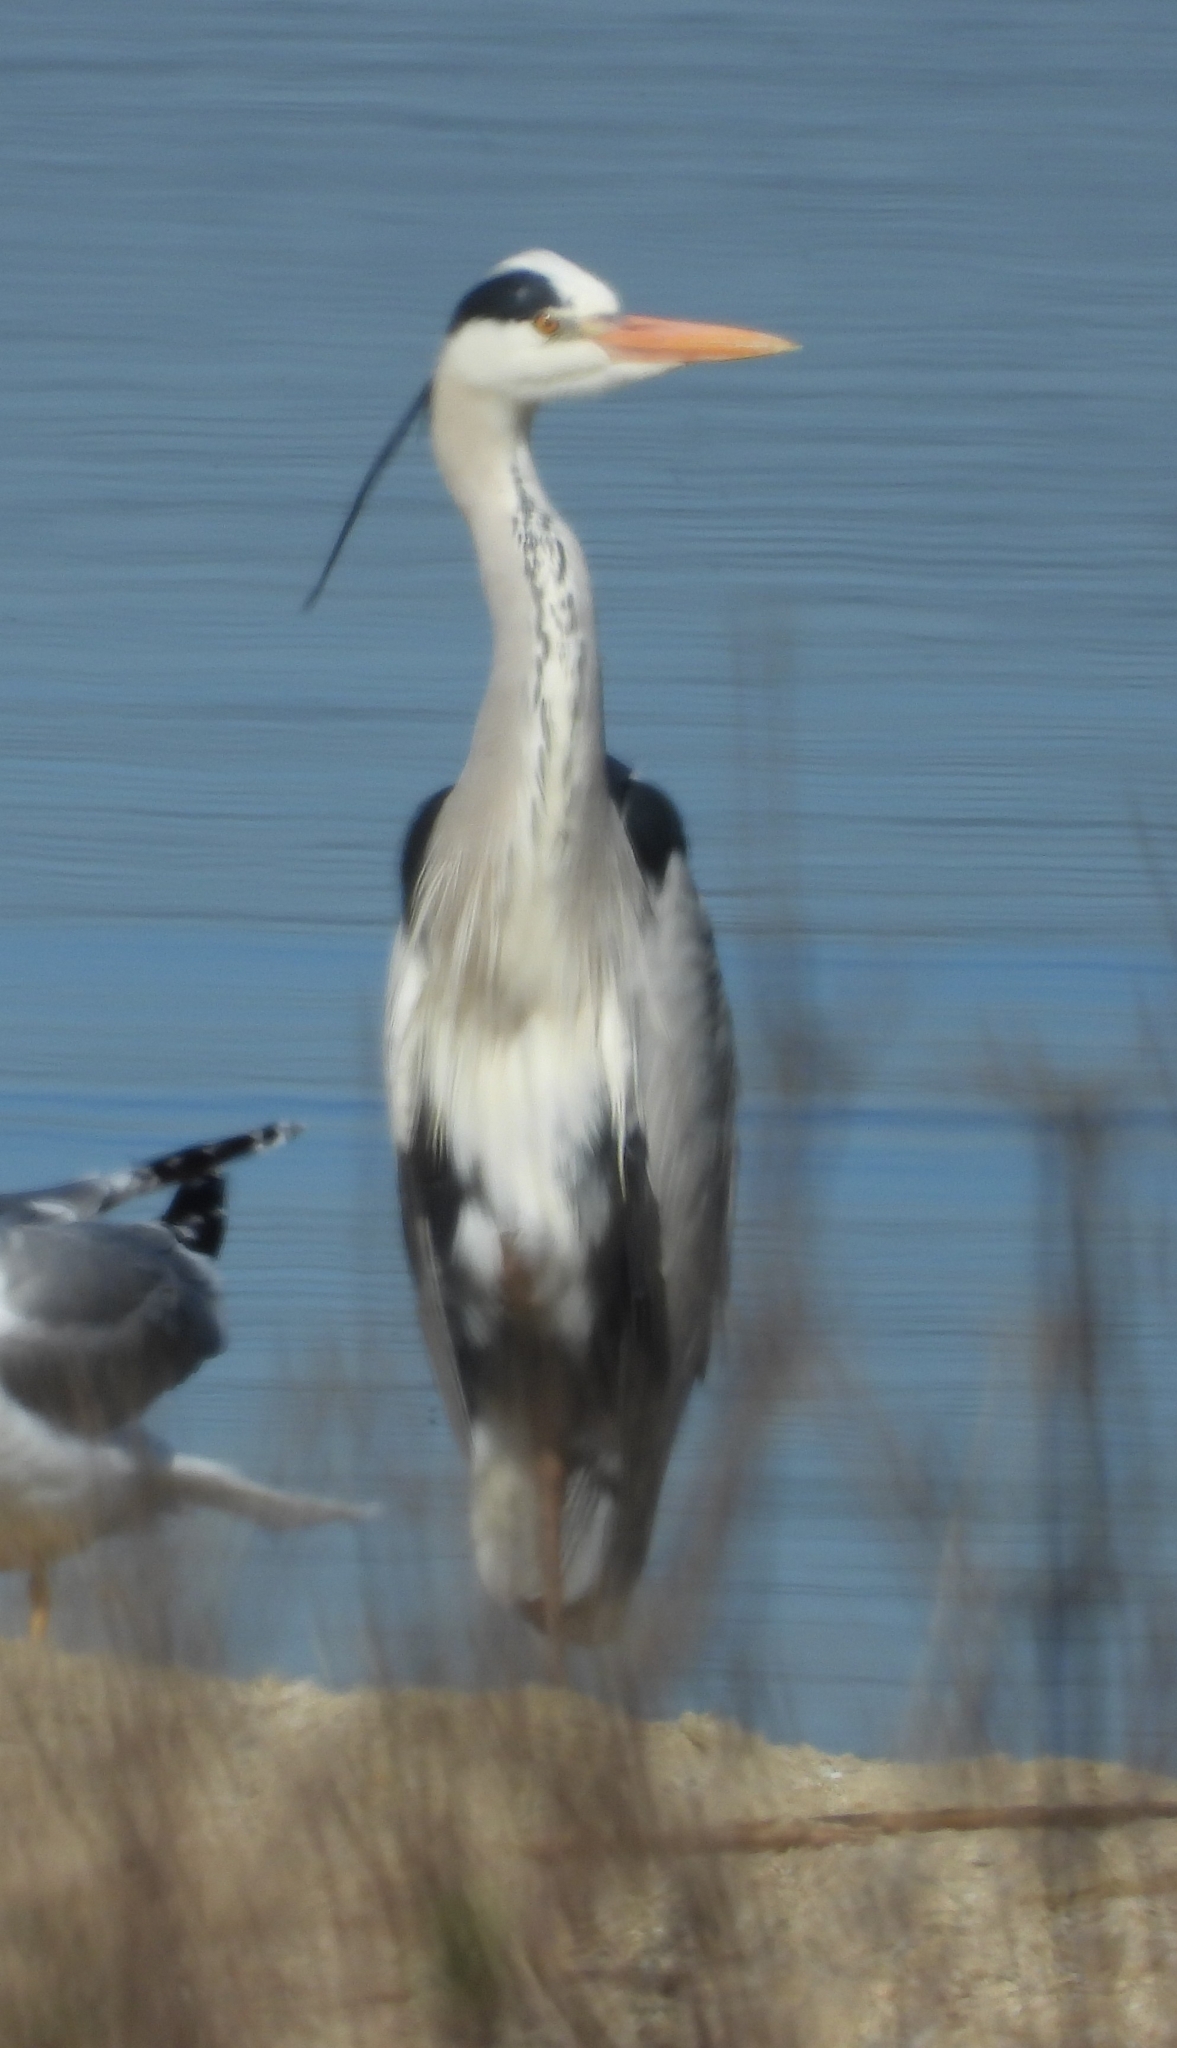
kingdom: Animalia
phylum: Chordata
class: Aves
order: Pelecaniformes
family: Ardeidae
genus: Ardea
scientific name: Ardea cinerea
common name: Grey heron
